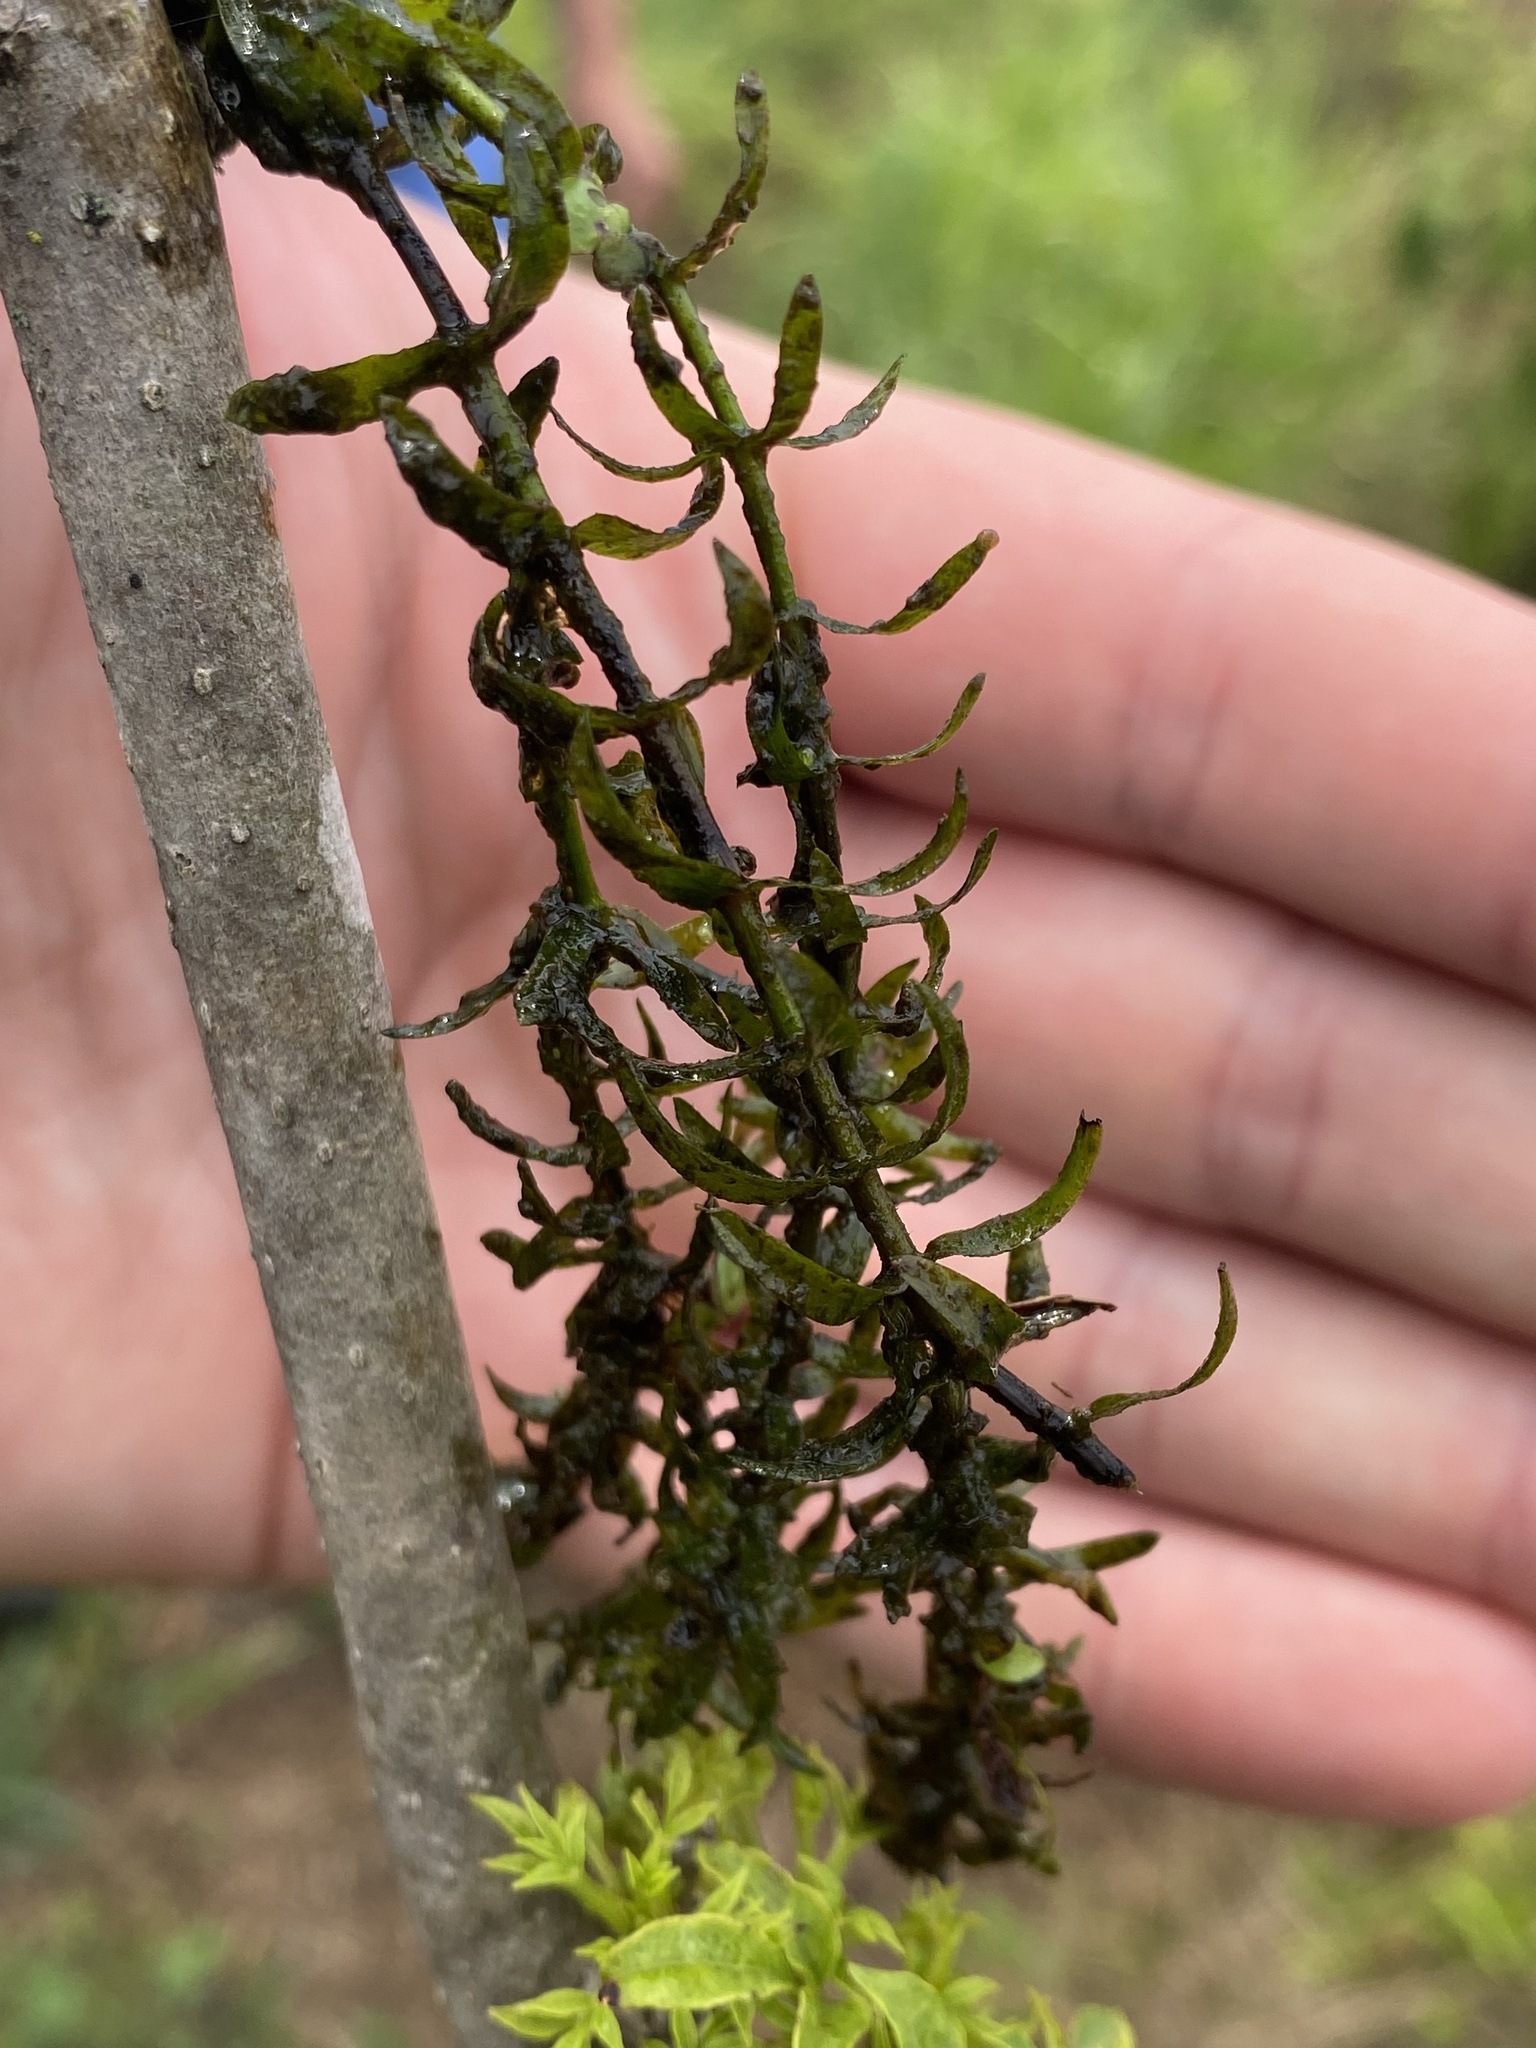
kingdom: Plantae
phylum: Tracheophyta
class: Liliopsida
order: Alismatales
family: Hydrocharitaceae
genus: Elodea
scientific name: Elodea canadensis
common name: Canadian waterweed
